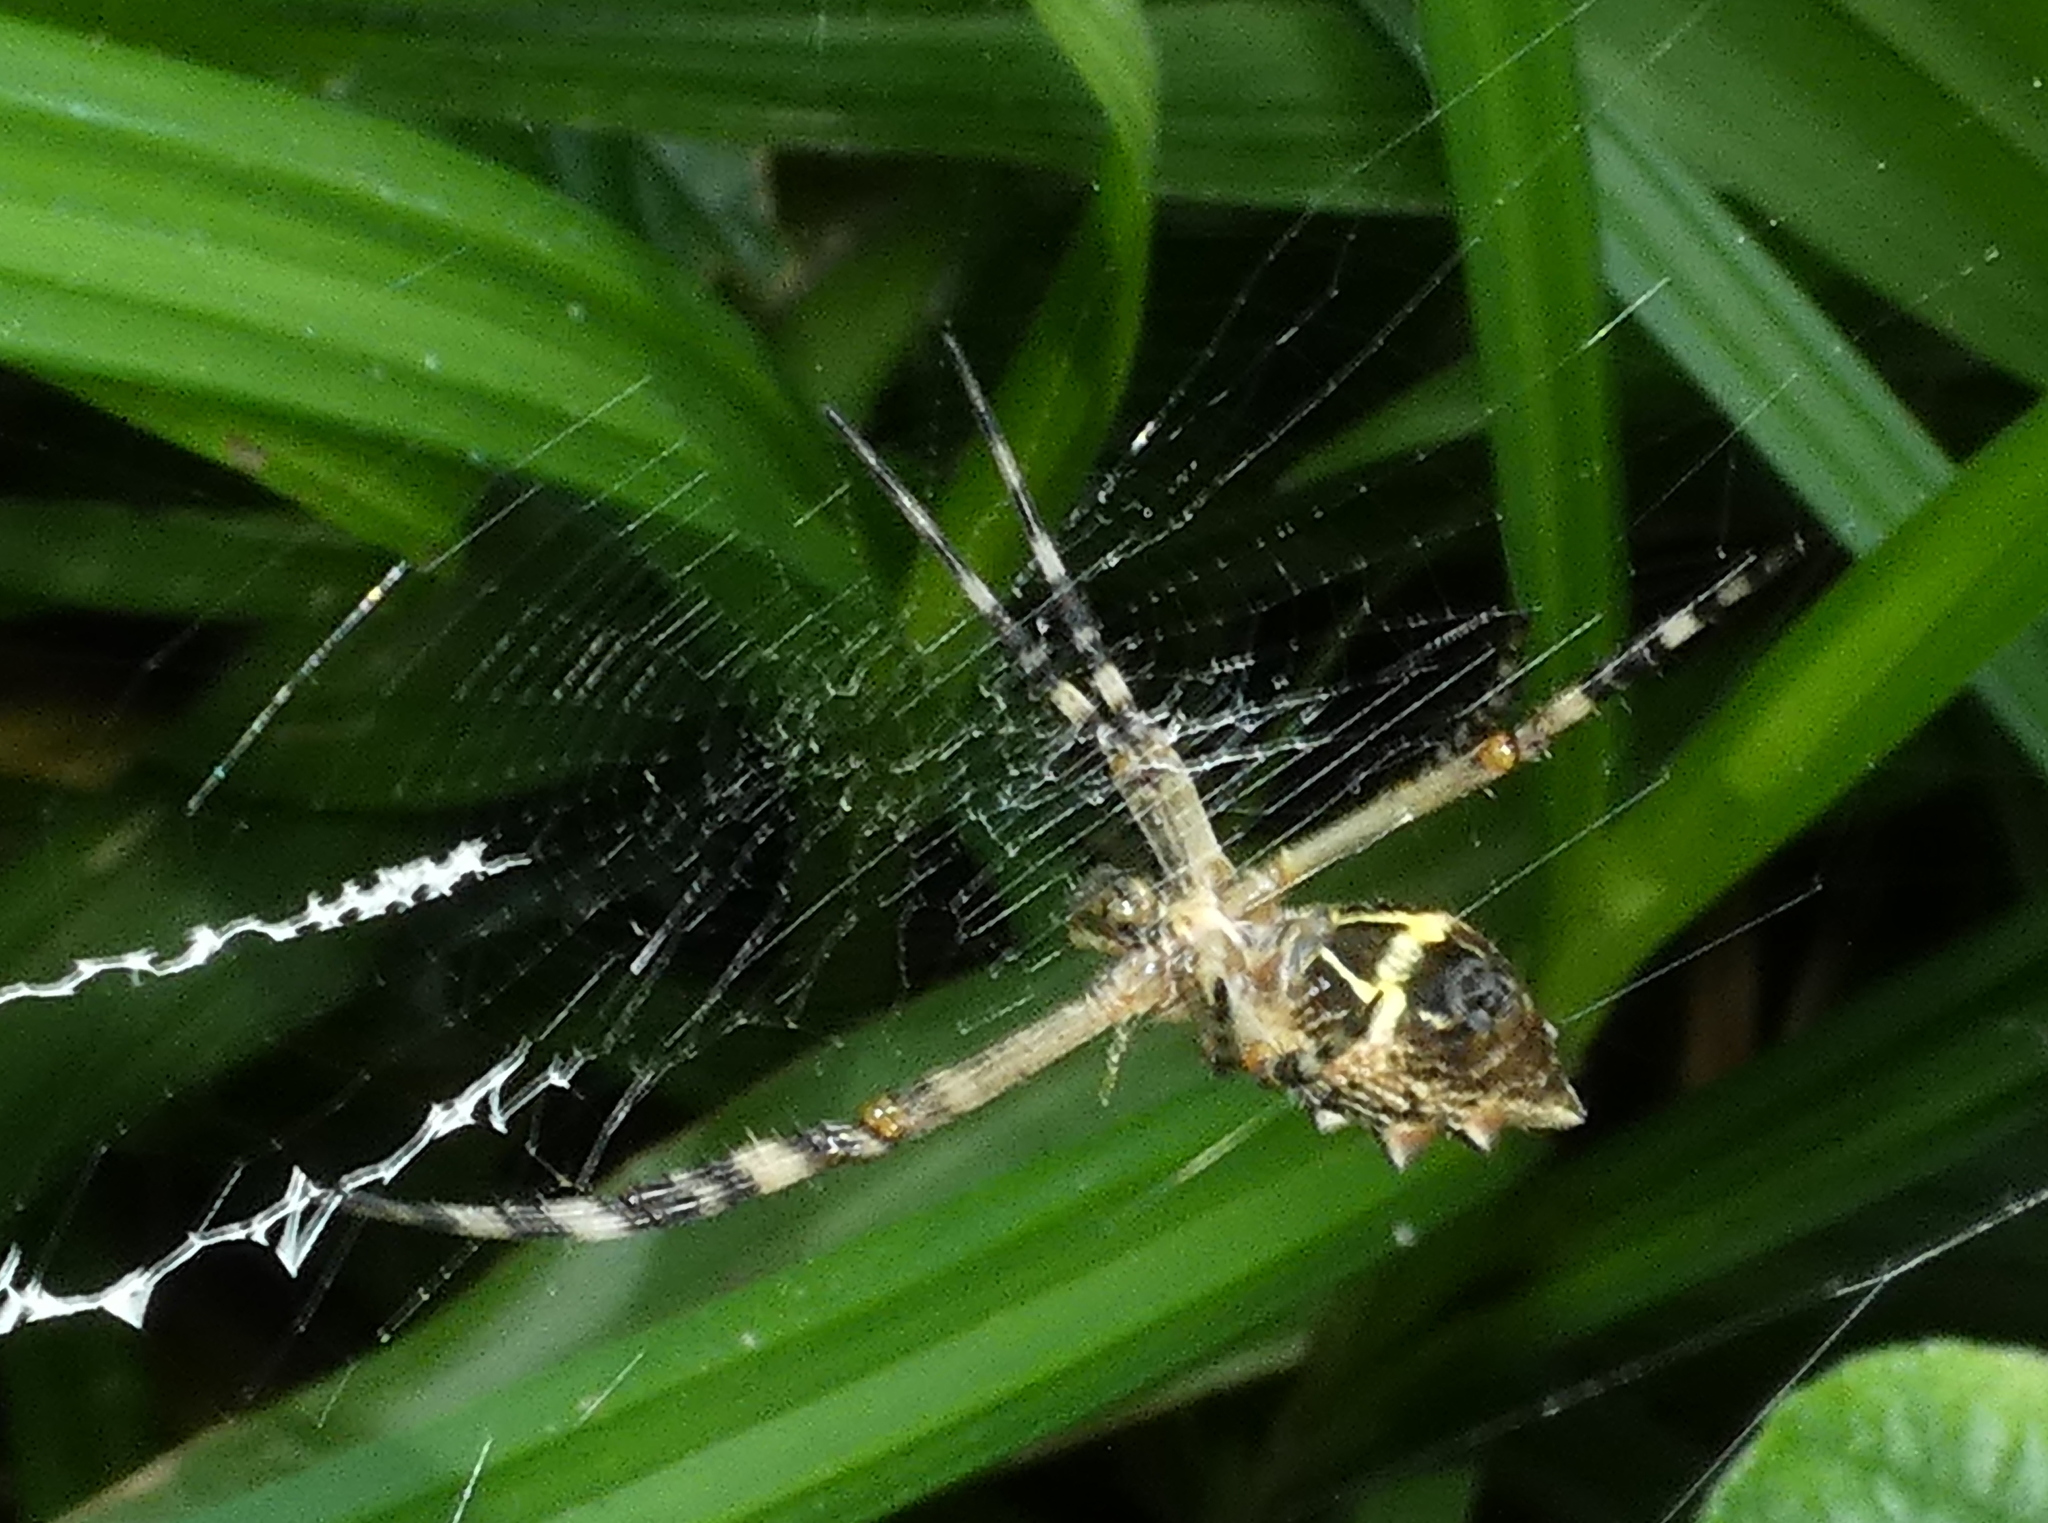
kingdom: Animalia
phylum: Arthropoda
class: Arachnida
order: Araneae
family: Araneidae
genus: Argiope
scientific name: Argiope argentata
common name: Orb weavers
